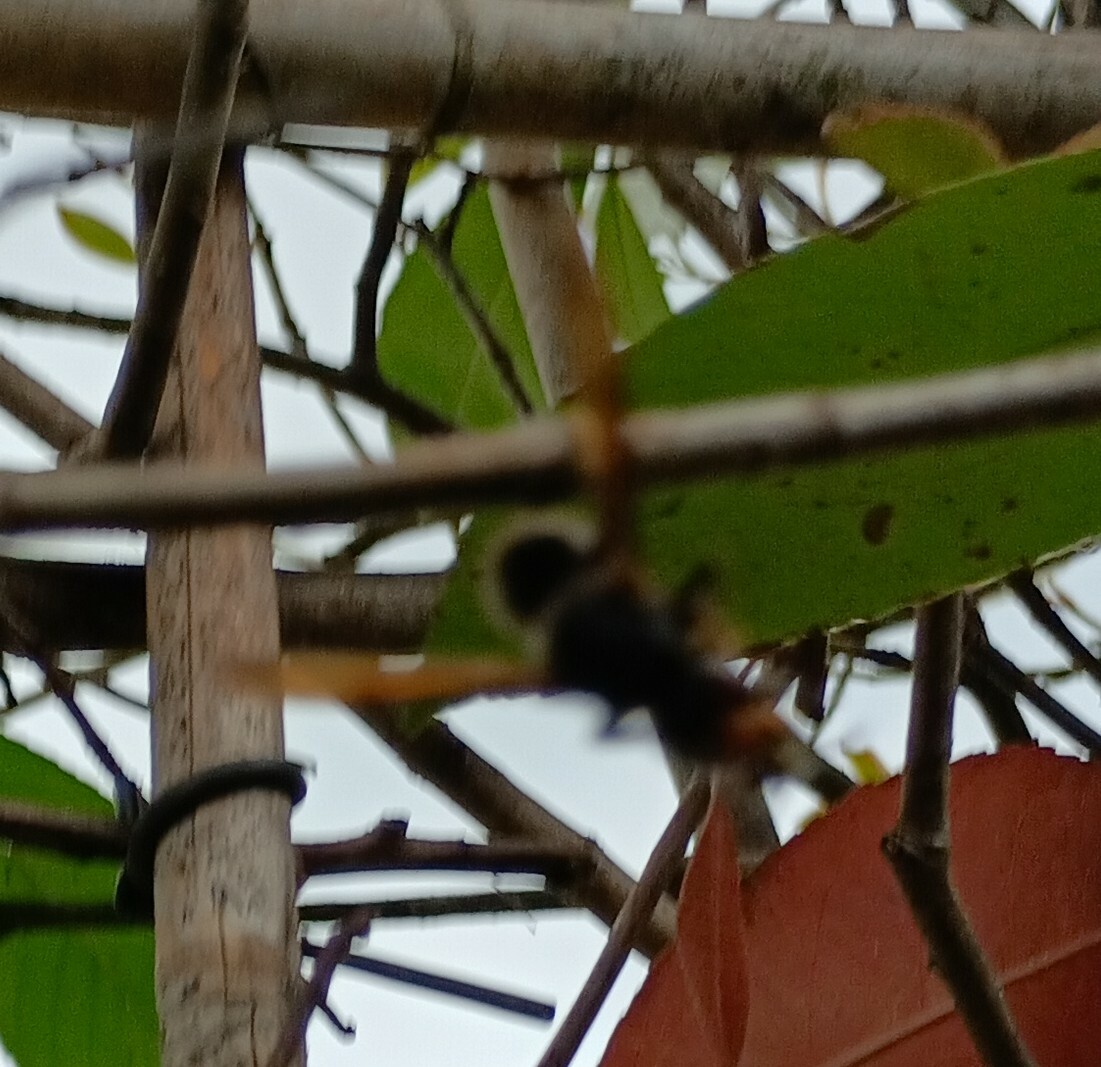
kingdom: Animalia
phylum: Arthropoda
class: Insecta
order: Hymenoptera
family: Vespidae
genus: Vespa
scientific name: Vespa velutina
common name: Asian hornet
